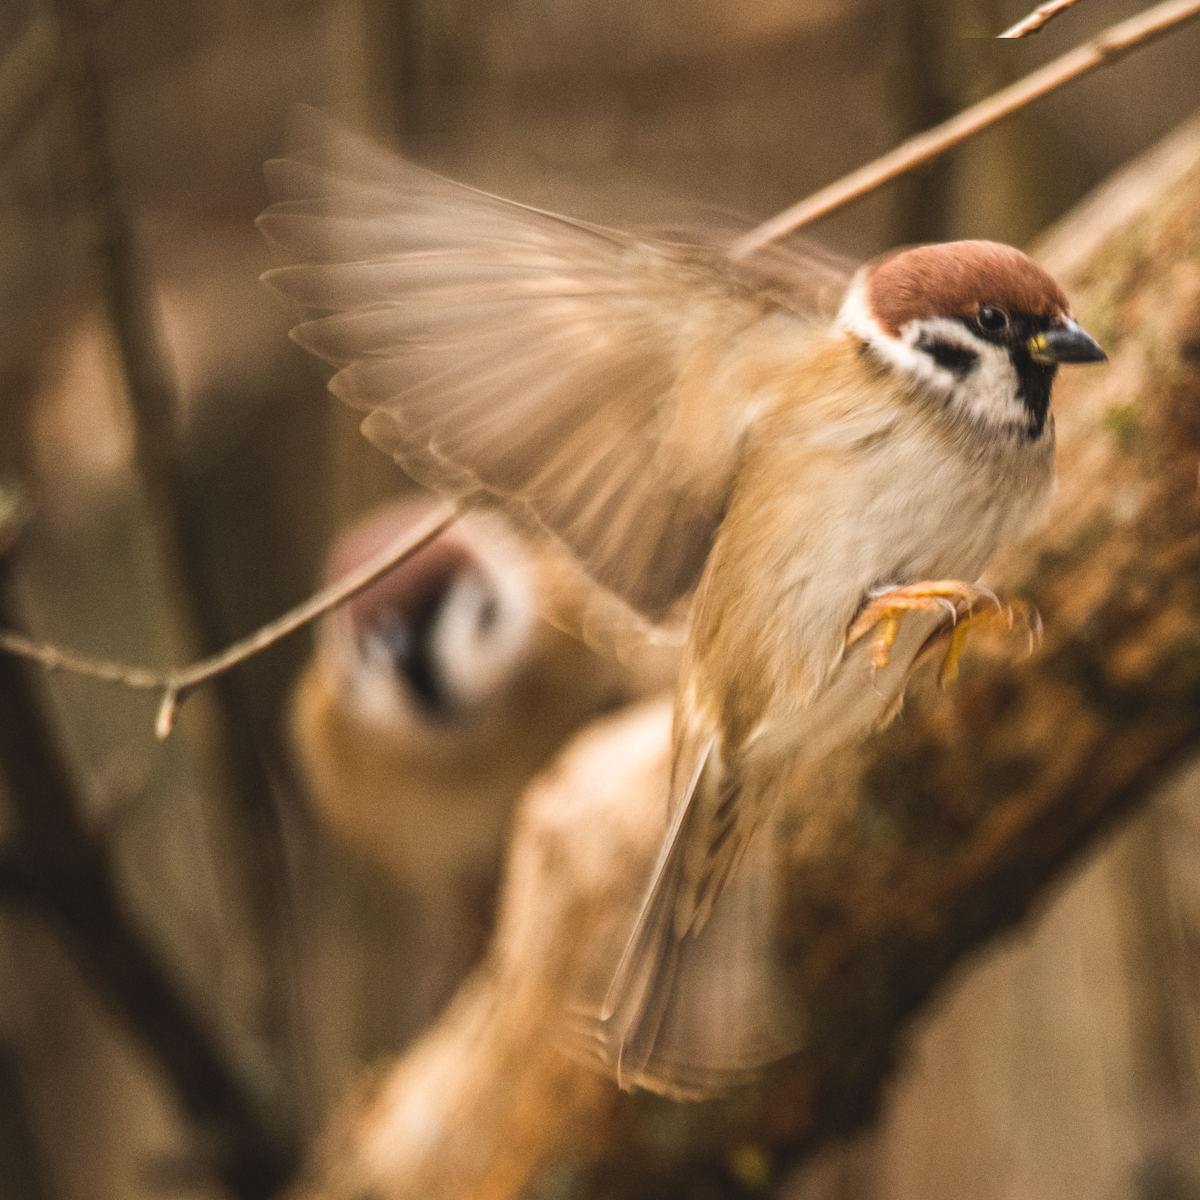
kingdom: Animalia
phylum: Chordata
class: Aves
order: Passeriformes
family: Passeridae
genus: Passer
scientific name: Passer montanus
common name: Eurasian tree sparrow
